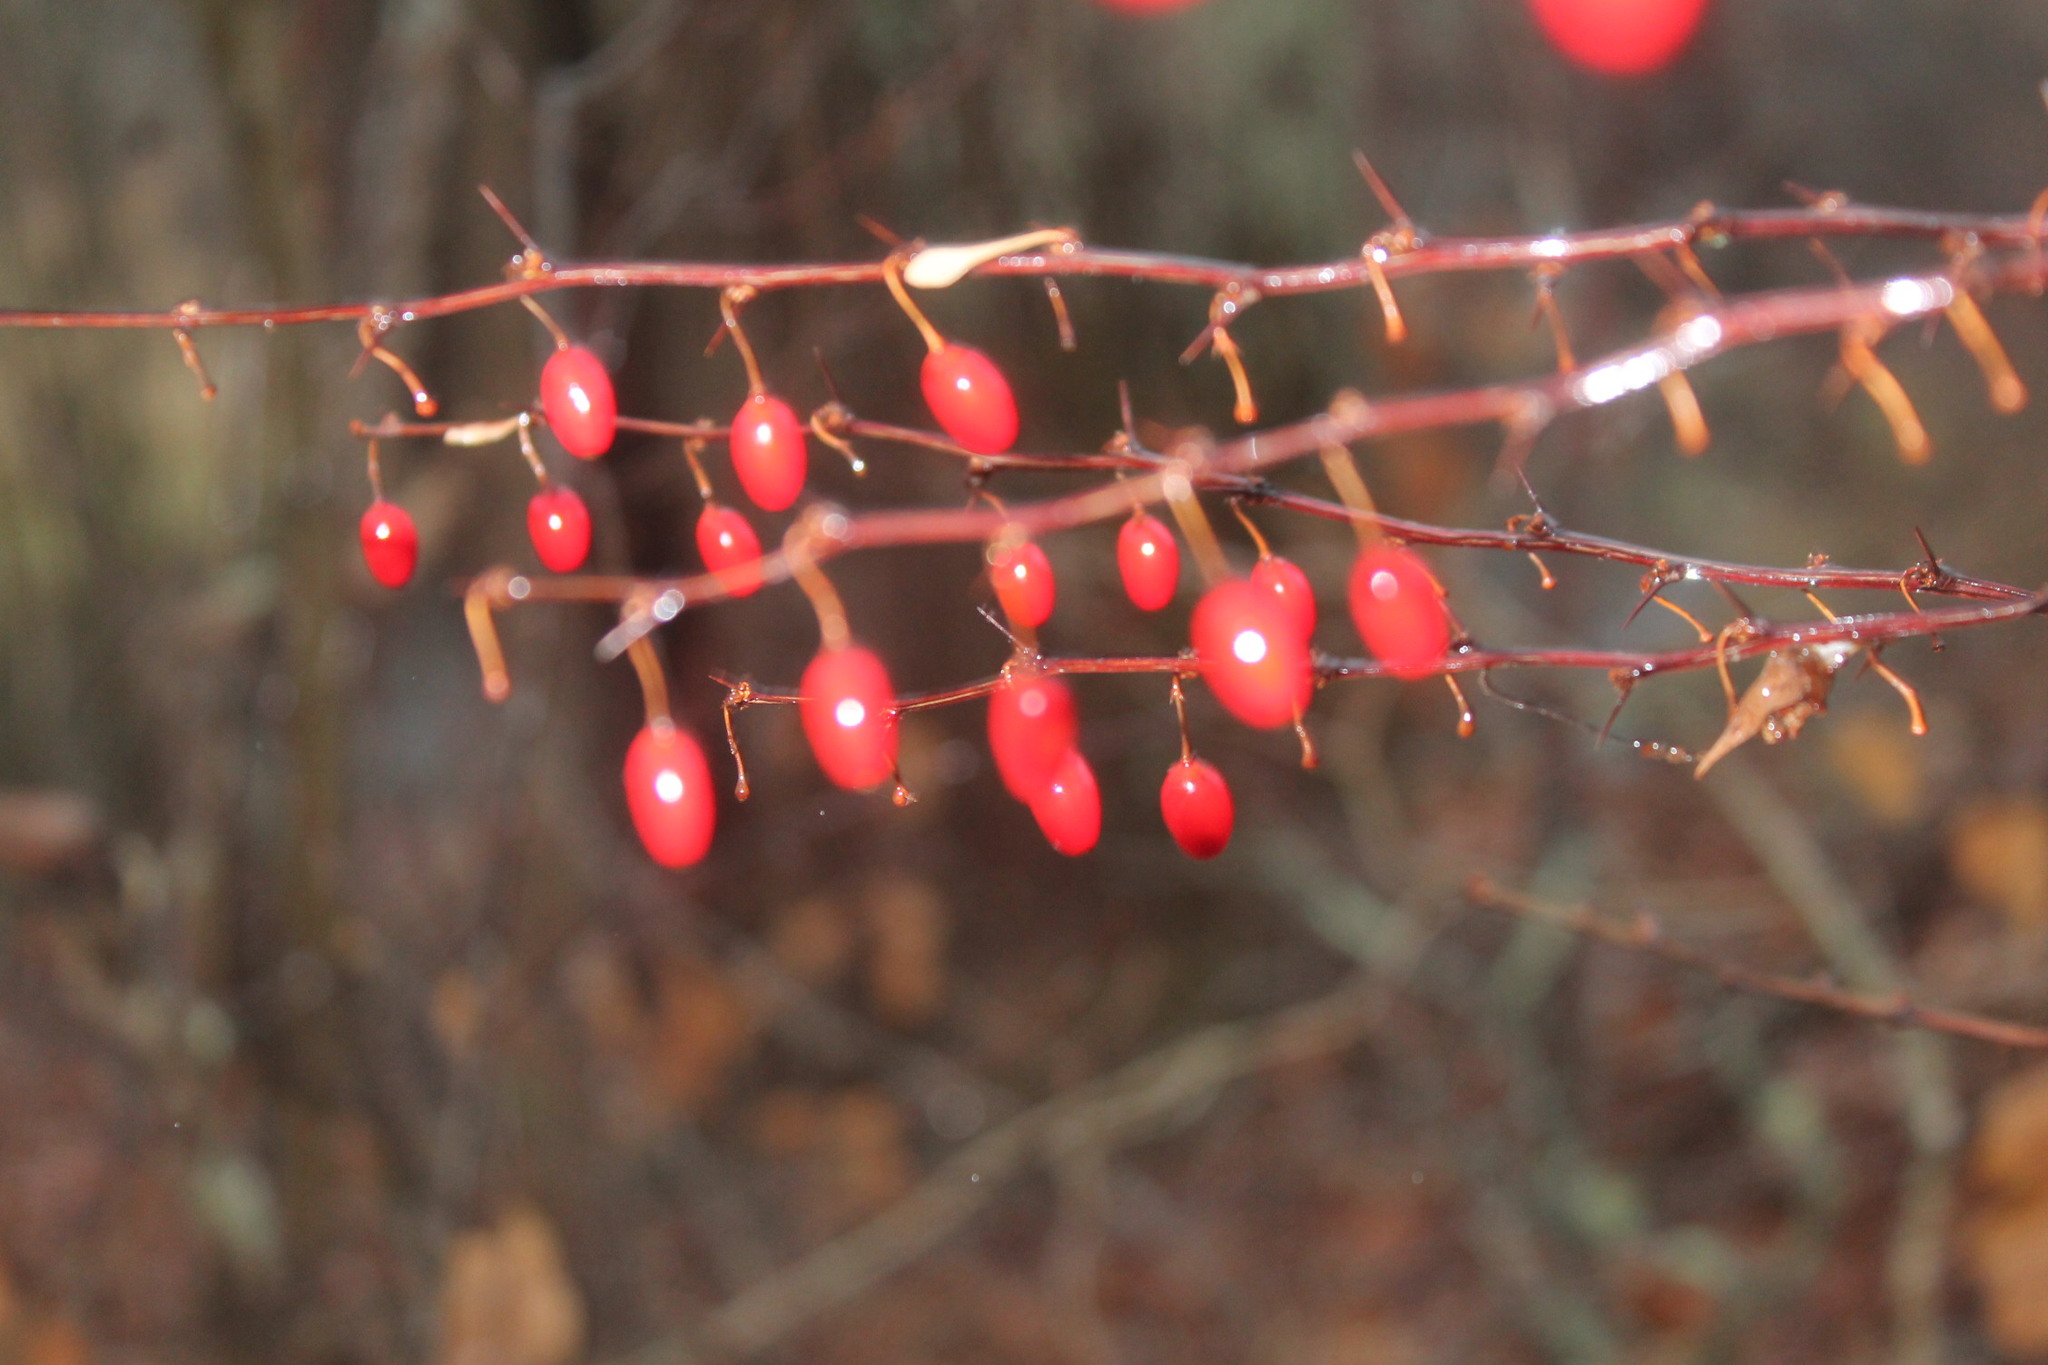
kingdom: Plantae
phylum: Tracheophyta
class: Magnoliopsida
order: Ranunculales
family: Berberidaceae
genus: Berberis
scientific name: Berberis thunbergii
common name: Japanese barberry
